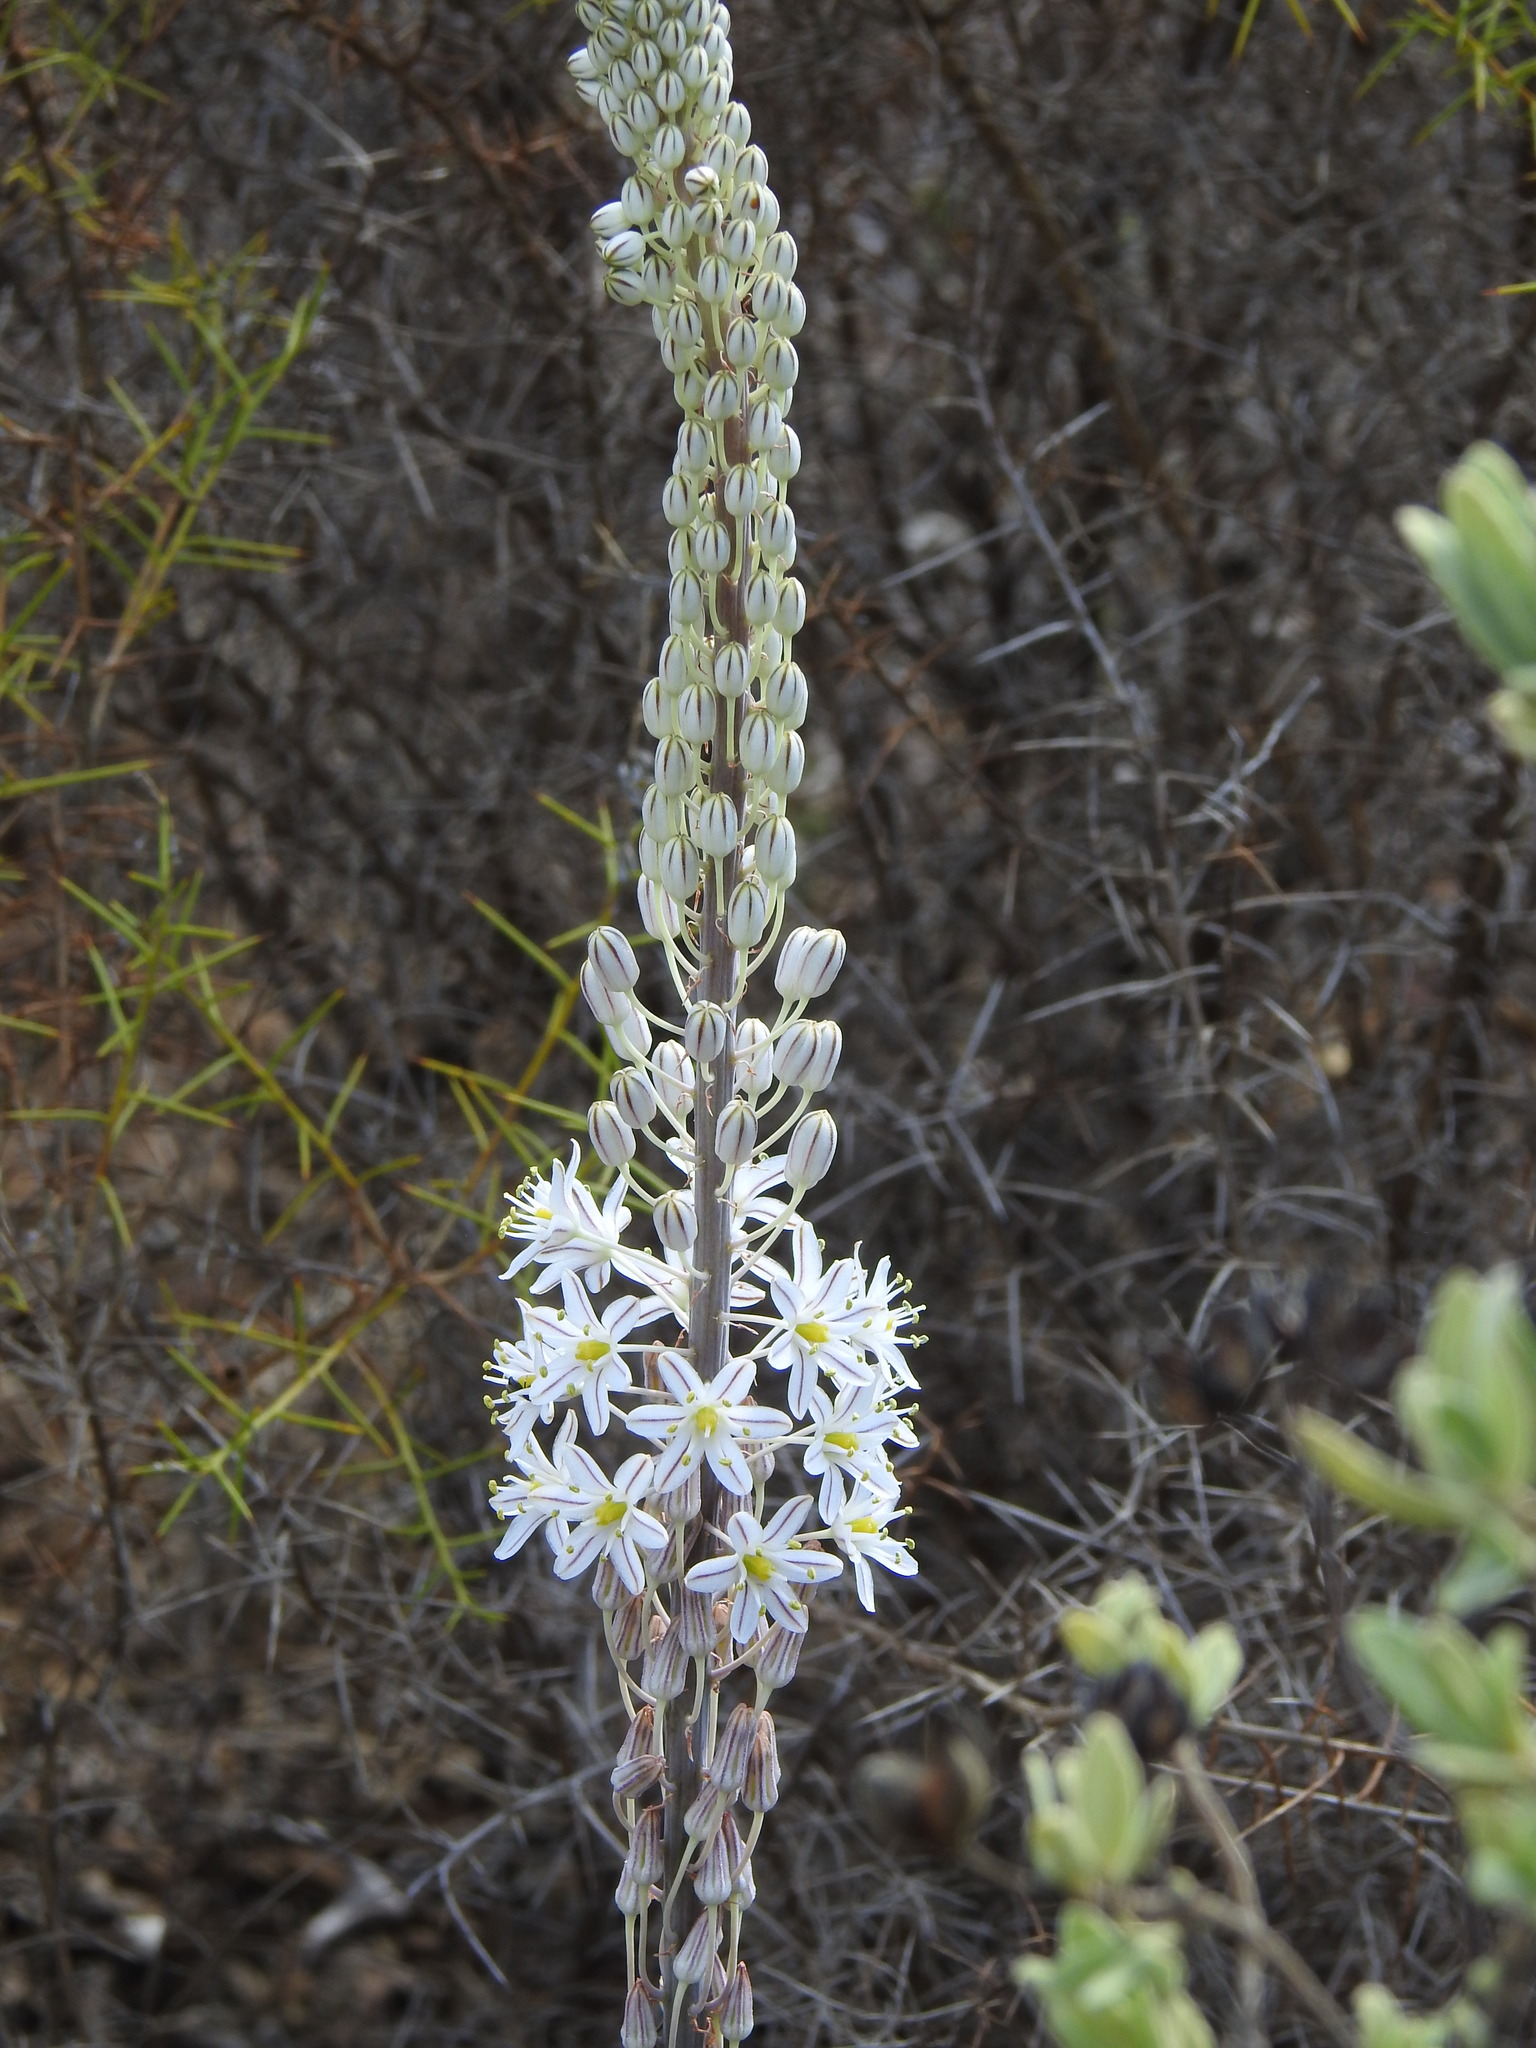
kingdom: Plantae
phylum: Tracheophyta
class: Liliopsida
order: Asparagales
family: Asparagaceae
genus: Drimia
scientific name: Drimia maritima
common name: Maritime squill
